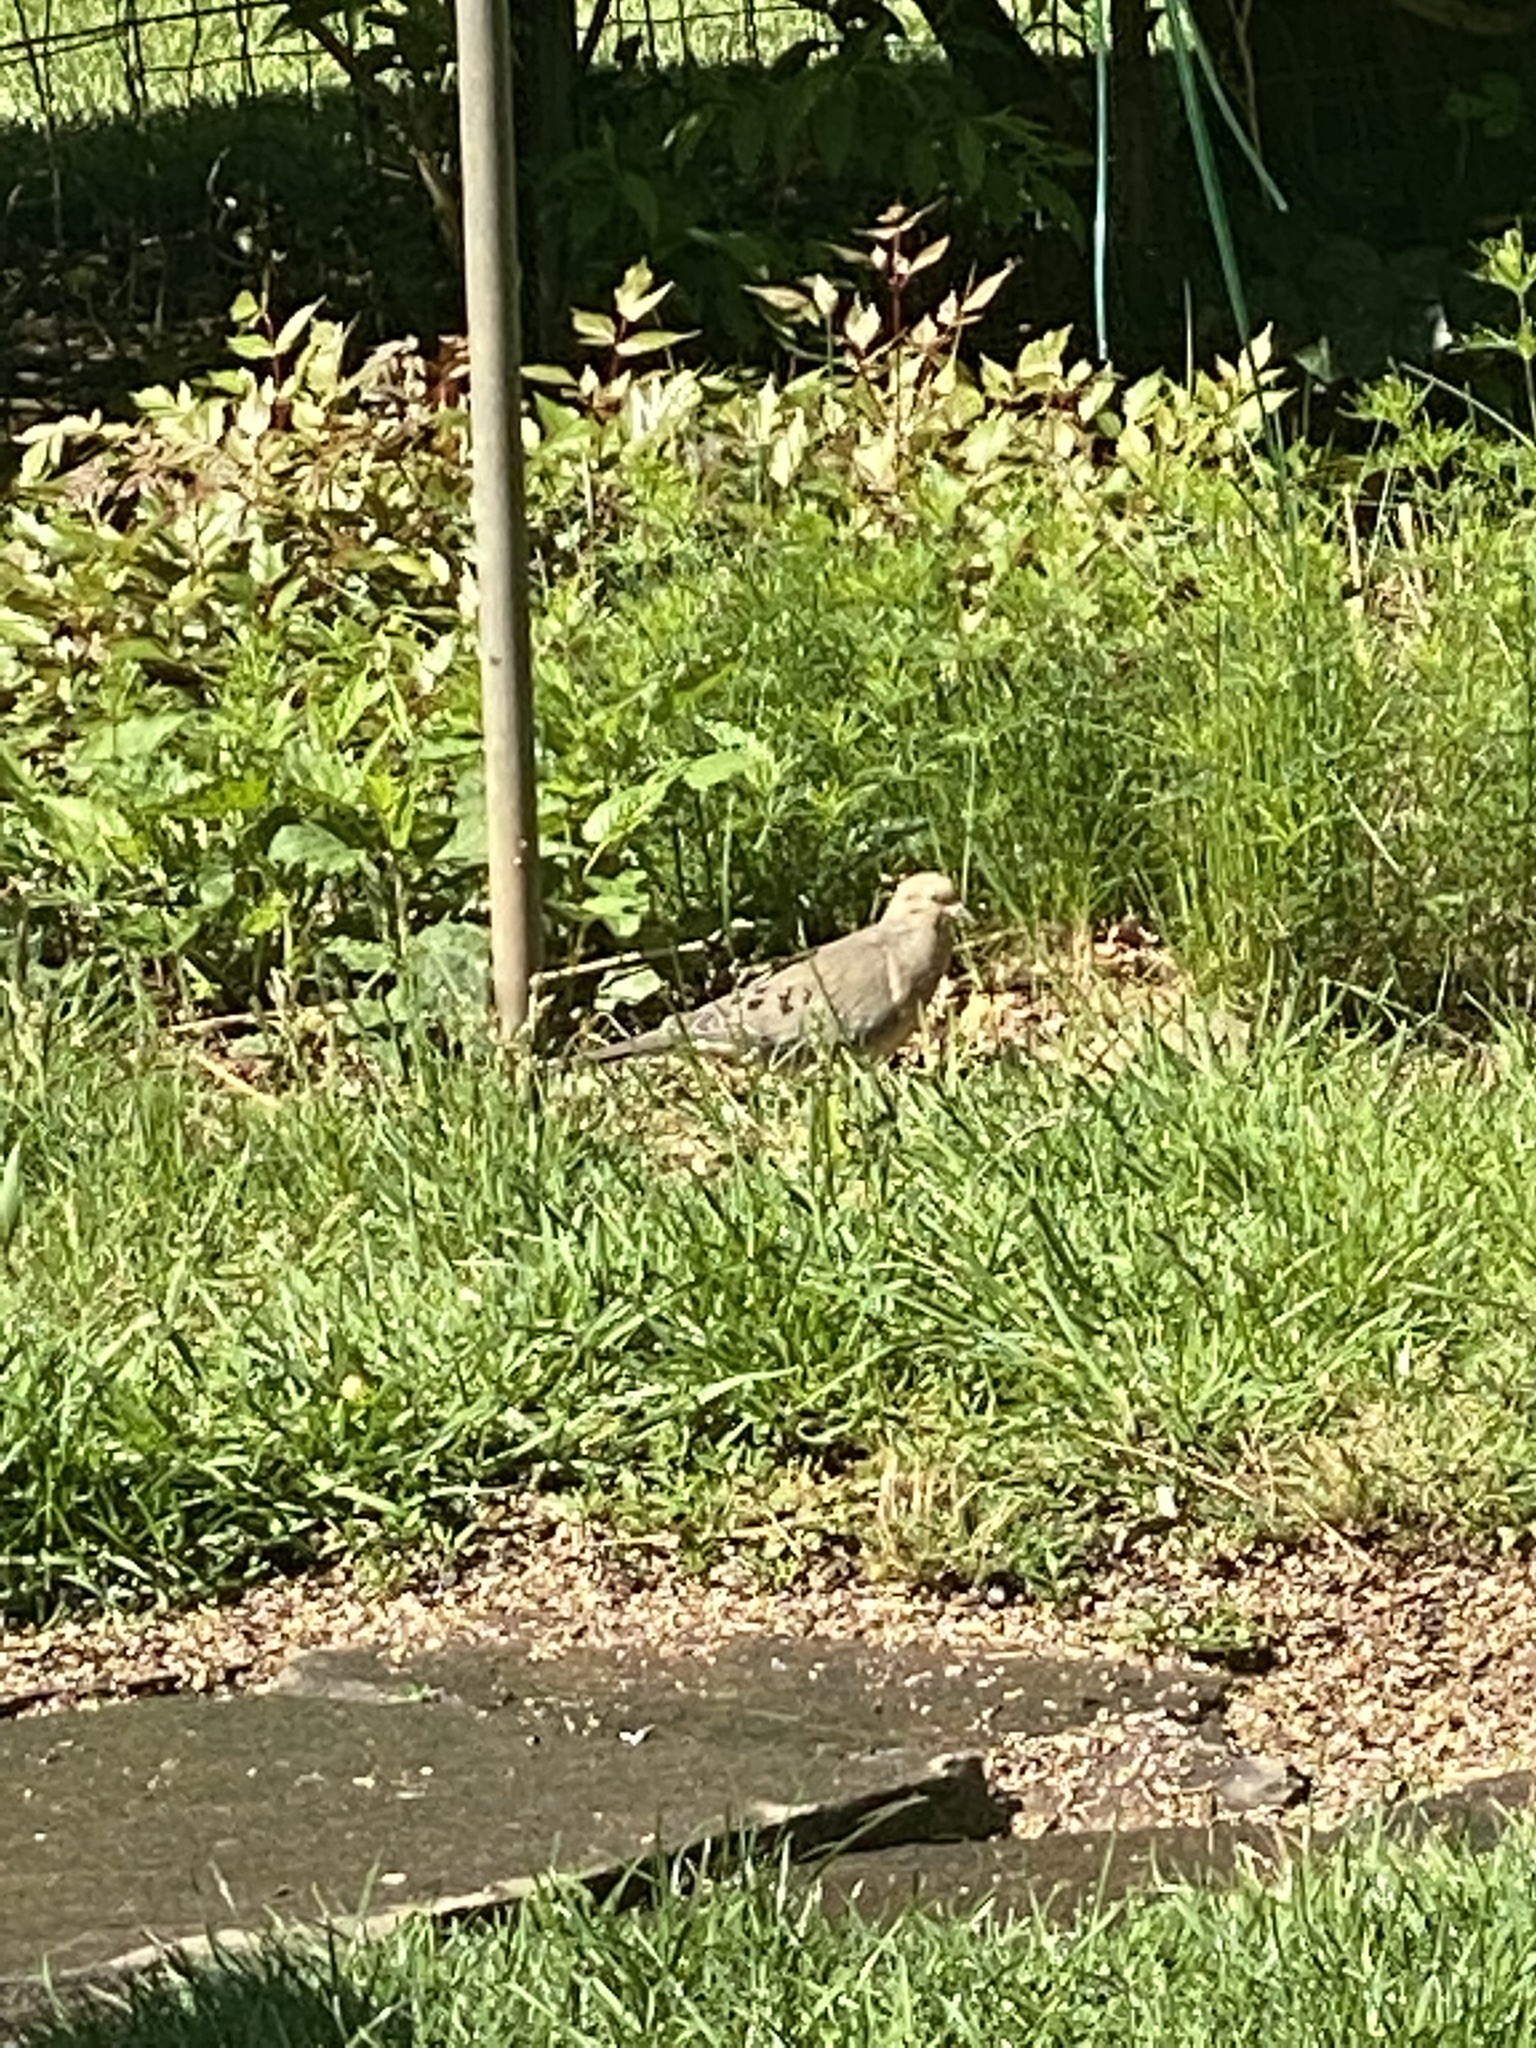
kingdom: Animalia
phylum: Chordata
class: Aves
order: Columbiformes
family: Columbidae
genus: Zenaida
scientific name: Zenaida macroura
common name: Mourning dove
